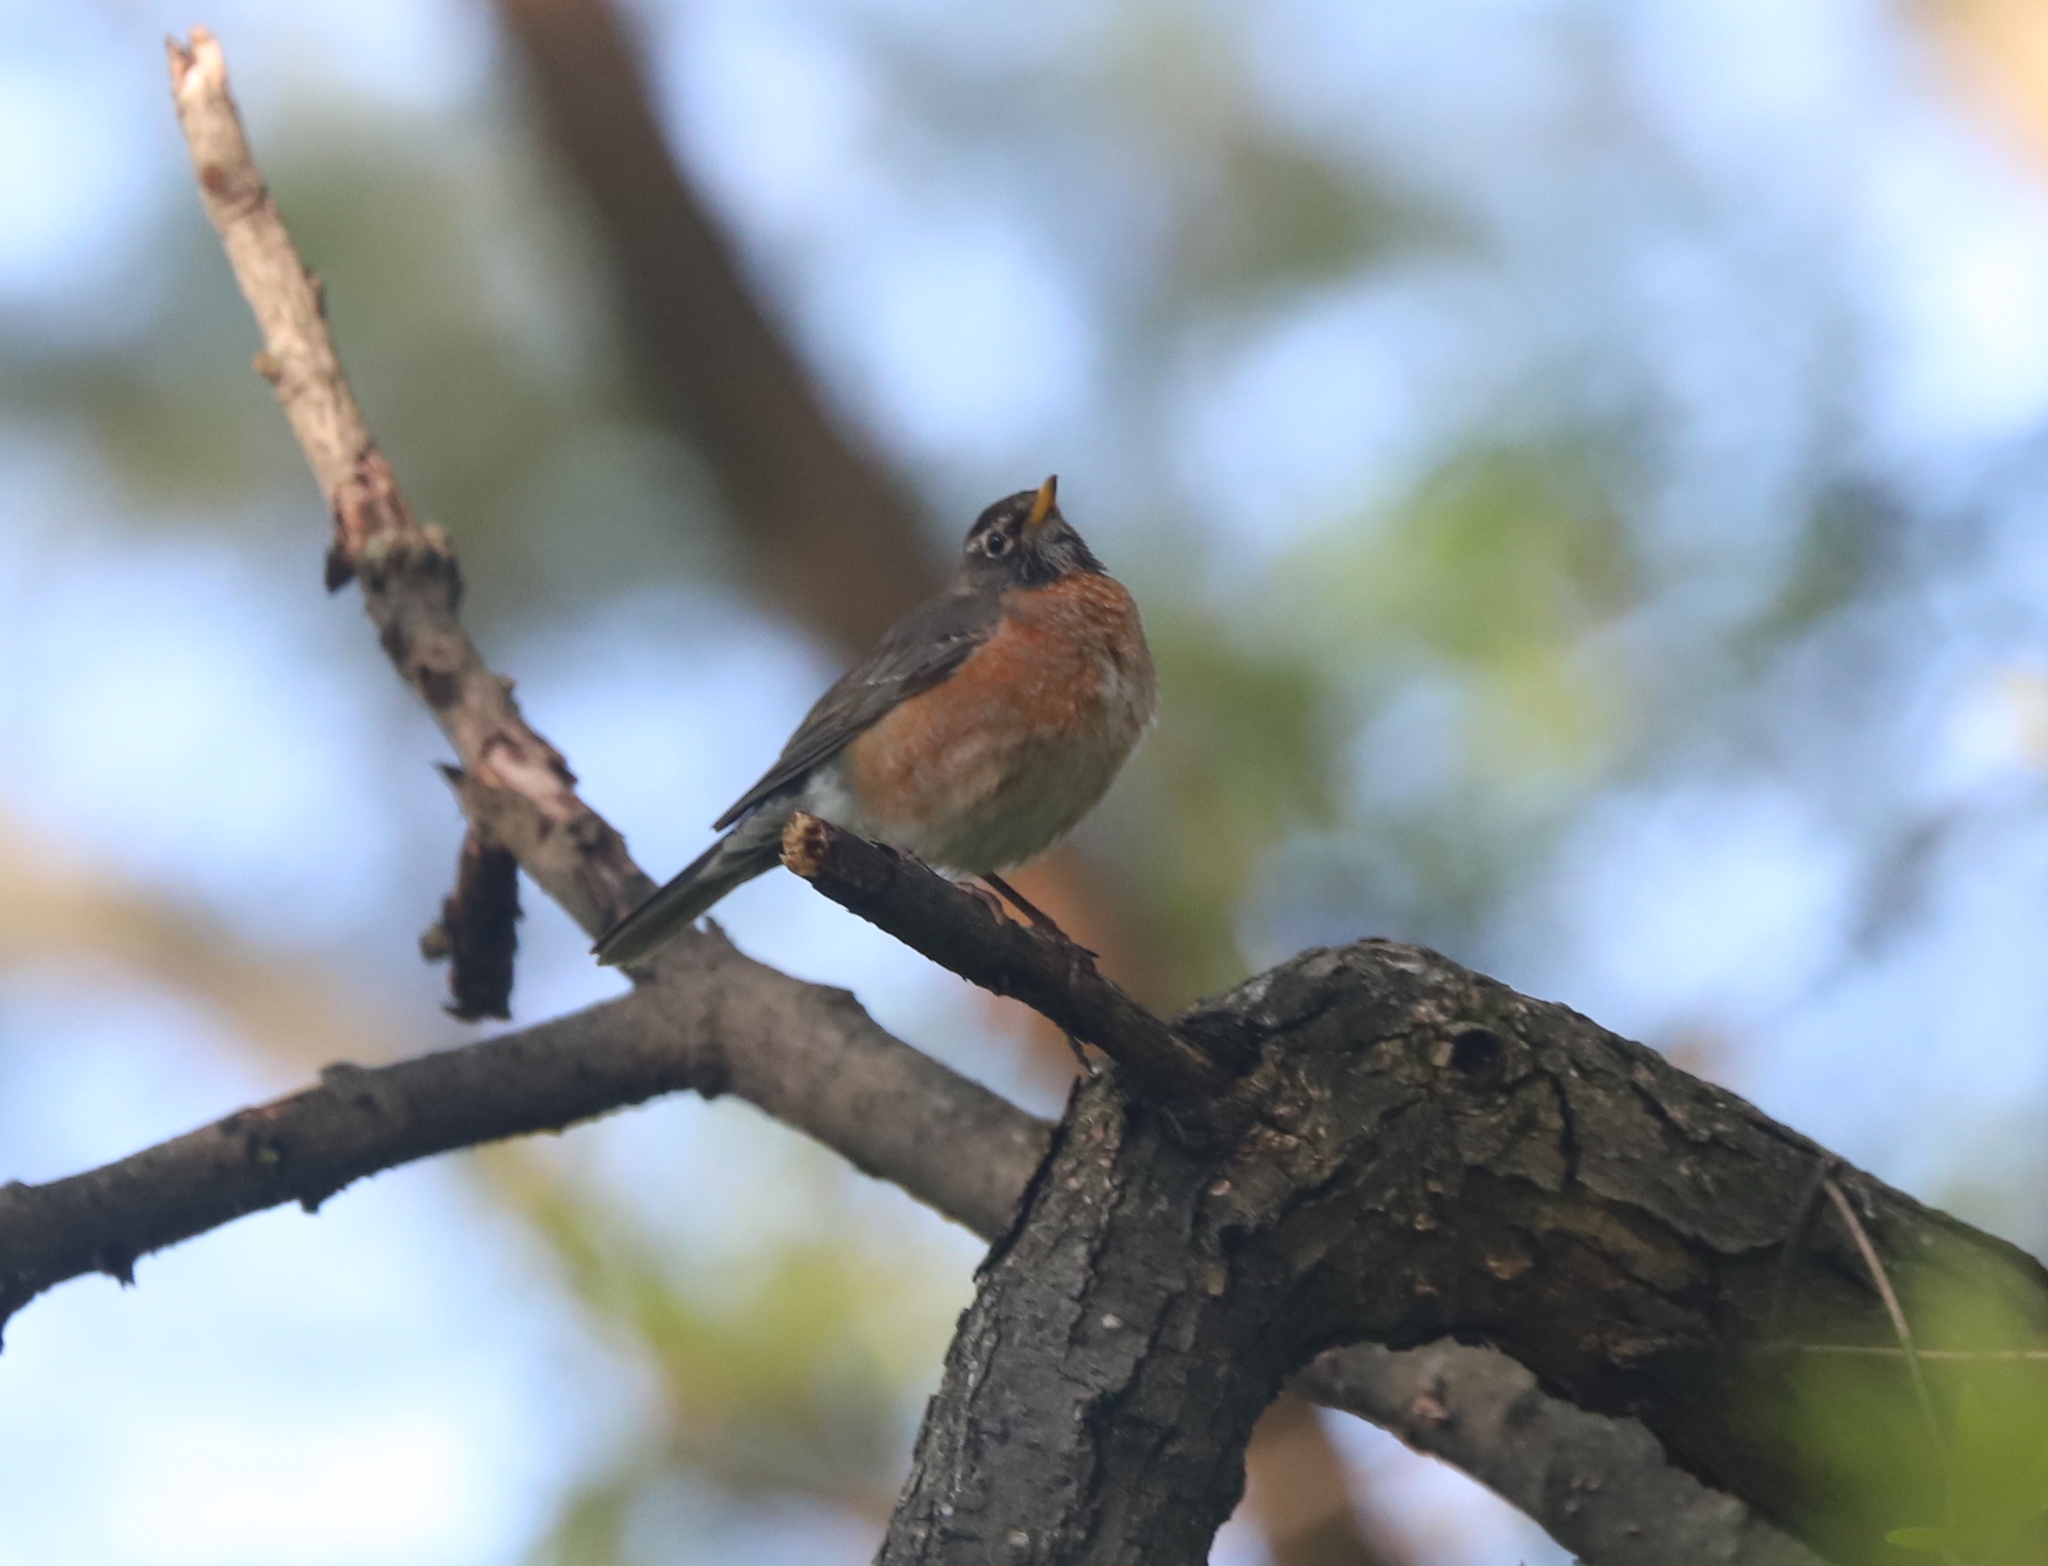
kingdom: Animalia
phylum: Chordata
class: Aves
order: Passeriformes
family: Turdidae
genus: Turdus
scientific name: Turdus migratorius
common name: American robin
